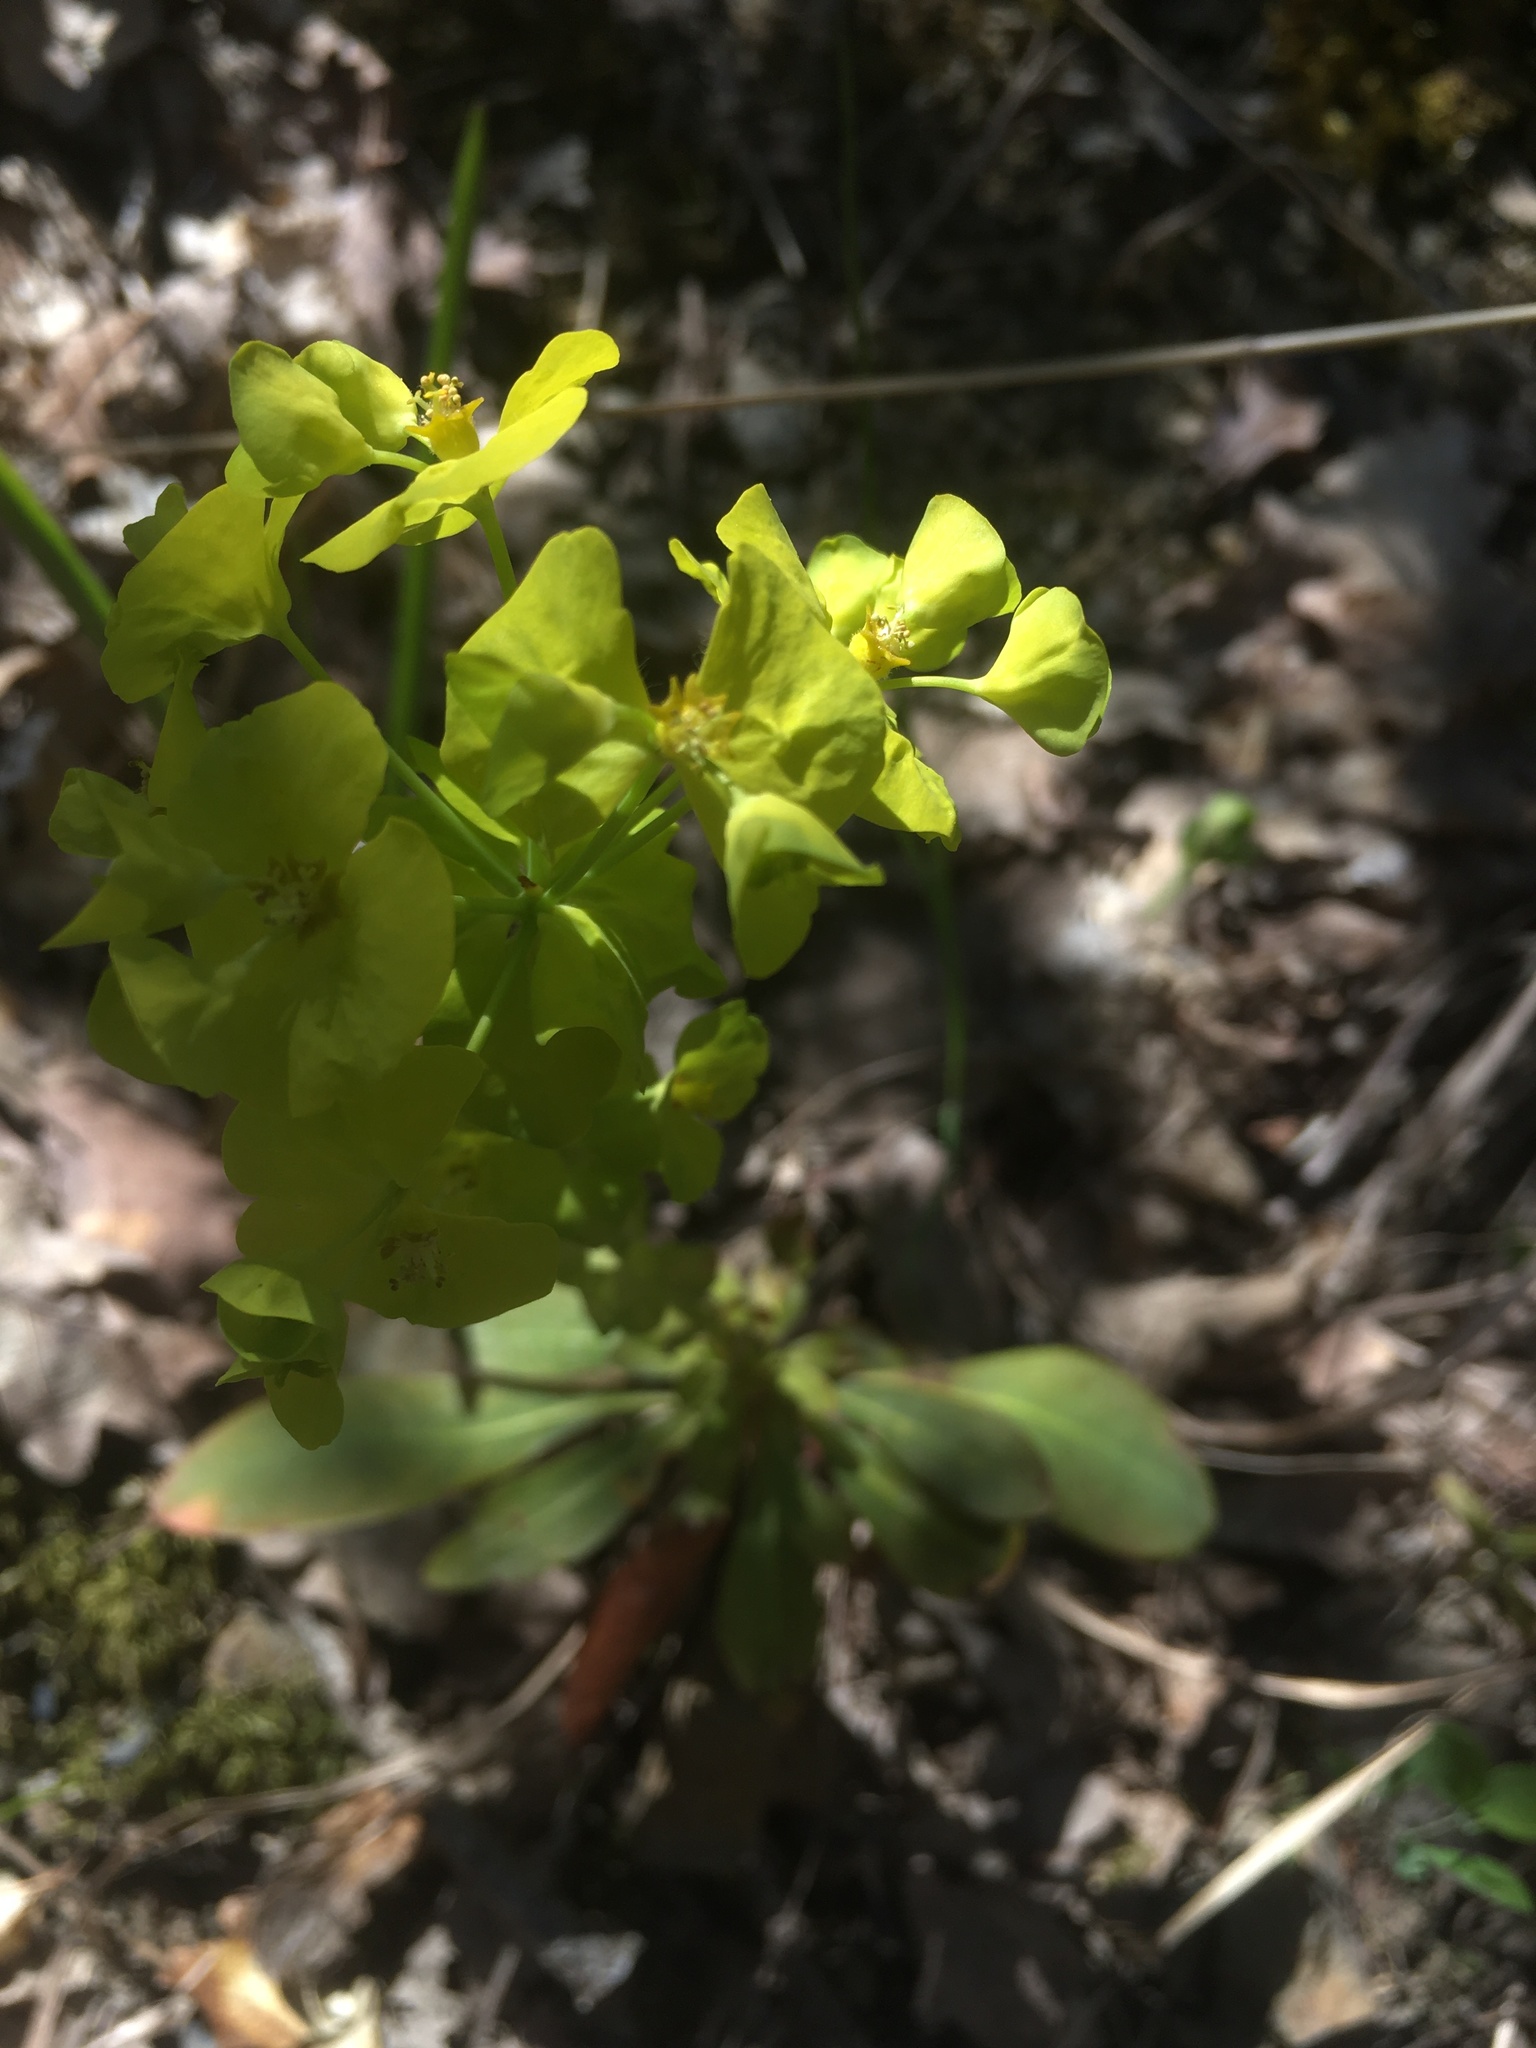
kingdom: Plantae
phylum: Tracheophyta
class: Magnoliopsida
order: Malpighiales
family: Euphorbiaceae
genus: Euphorbia
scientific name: Euphorbia amygdaloides
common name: Wood spurge
